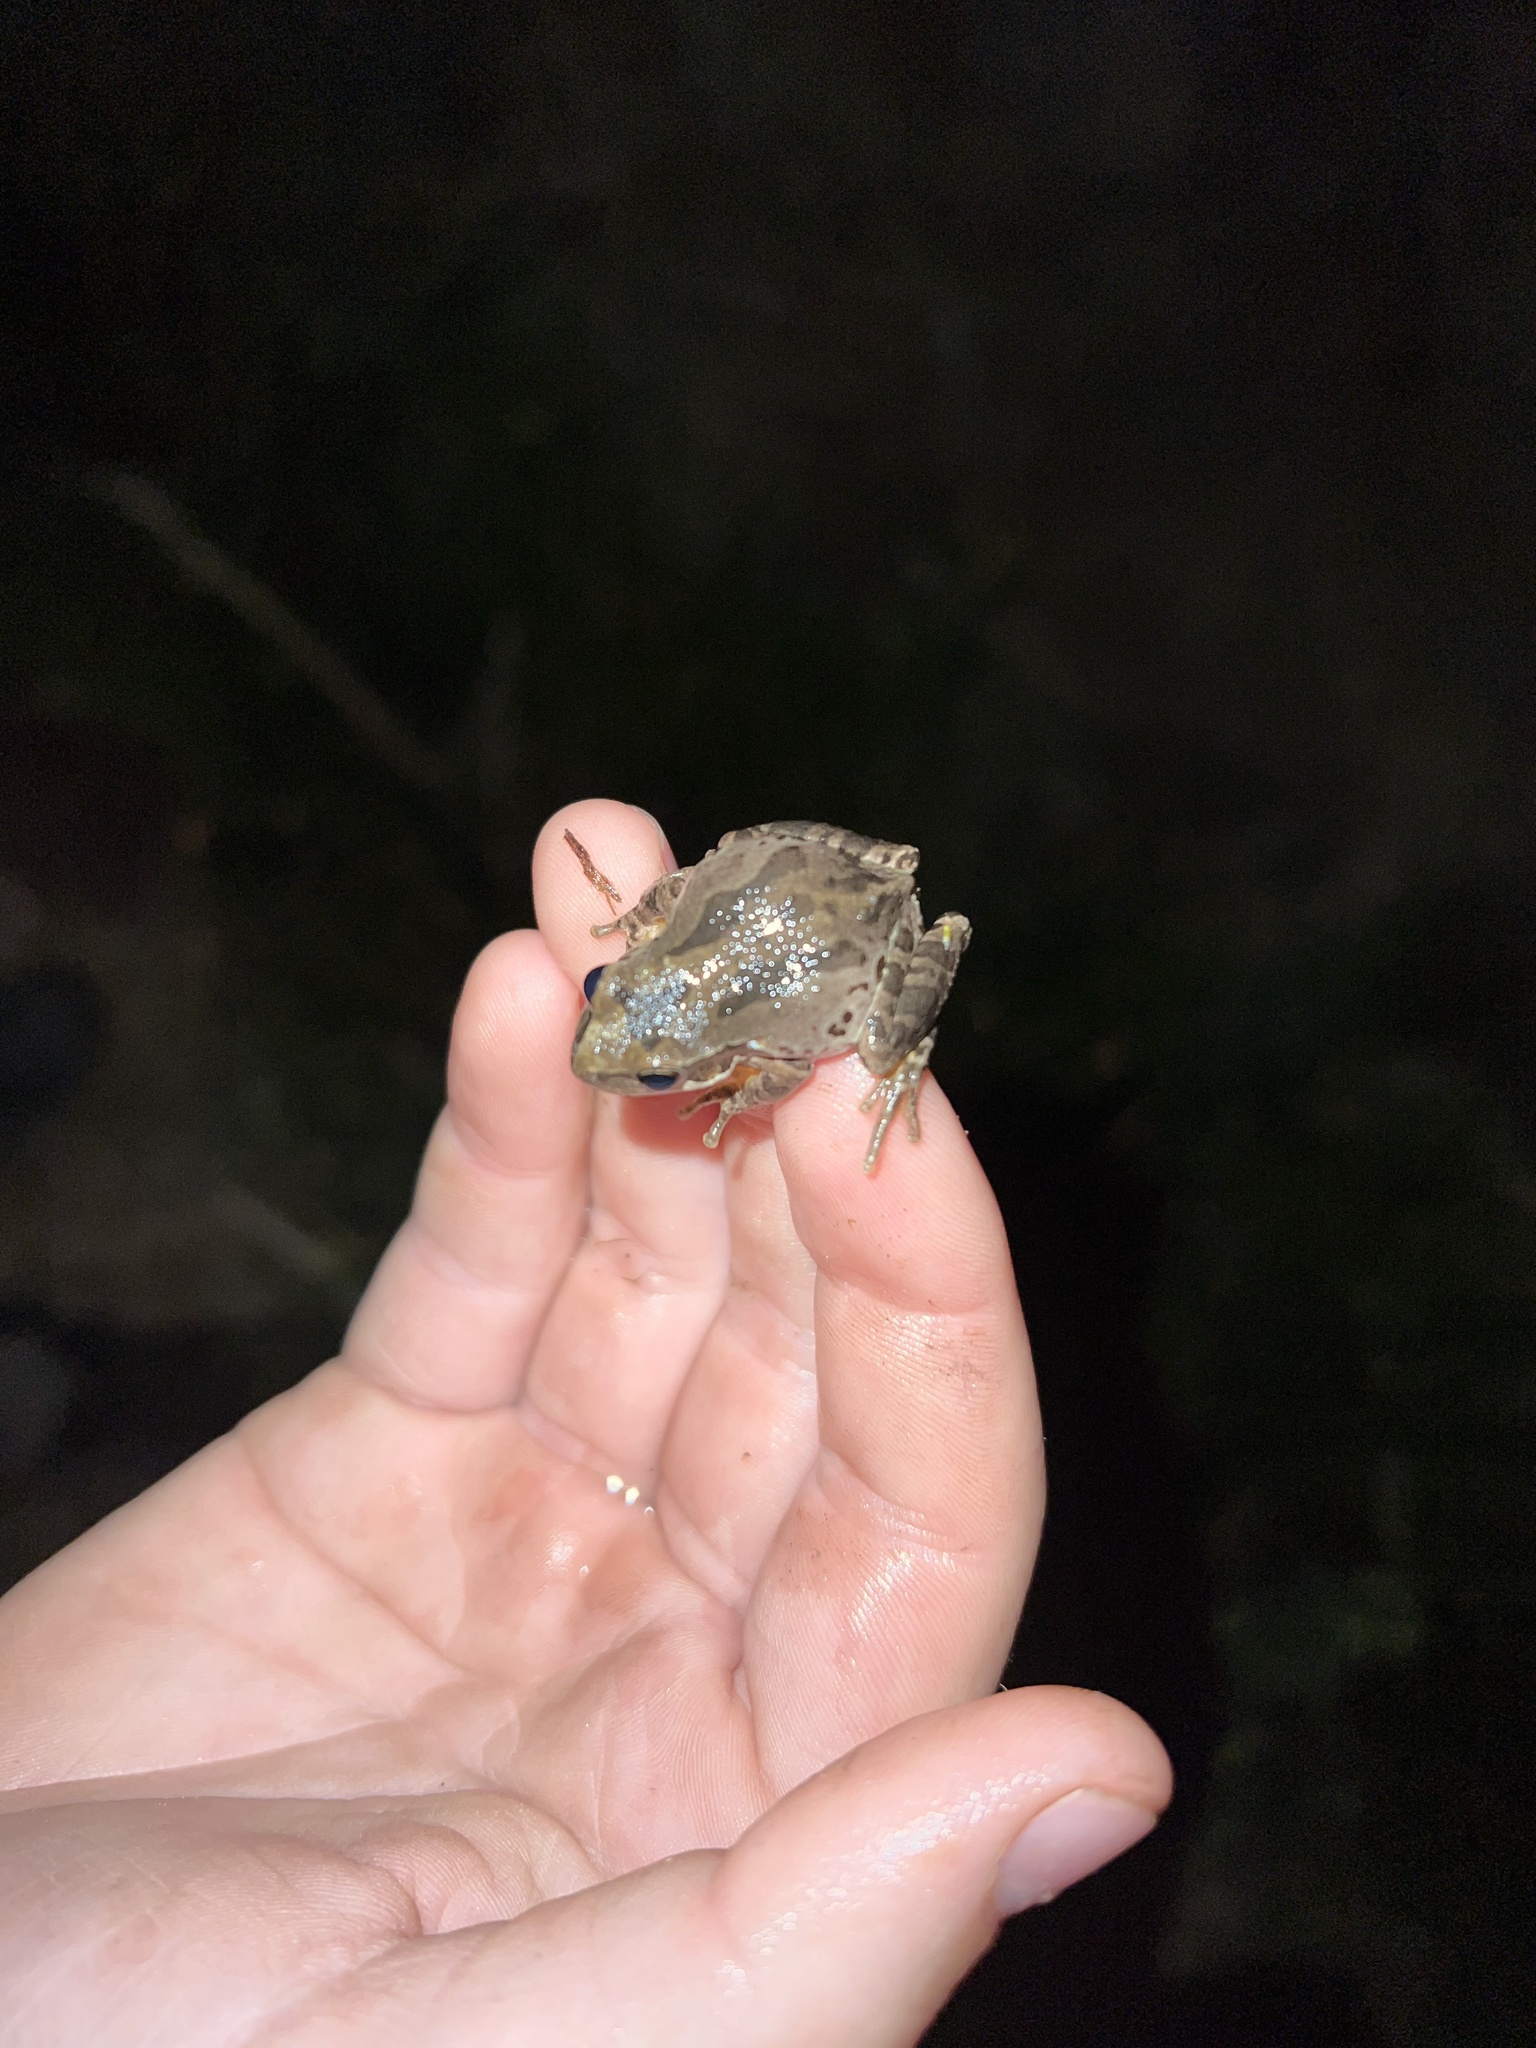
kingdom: Animalia
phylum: Chordata
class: Amphibia
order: Anura
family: Hylidae
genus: Pseudacris
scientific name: Pseudacris regilla
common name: Pacific chorus frog
